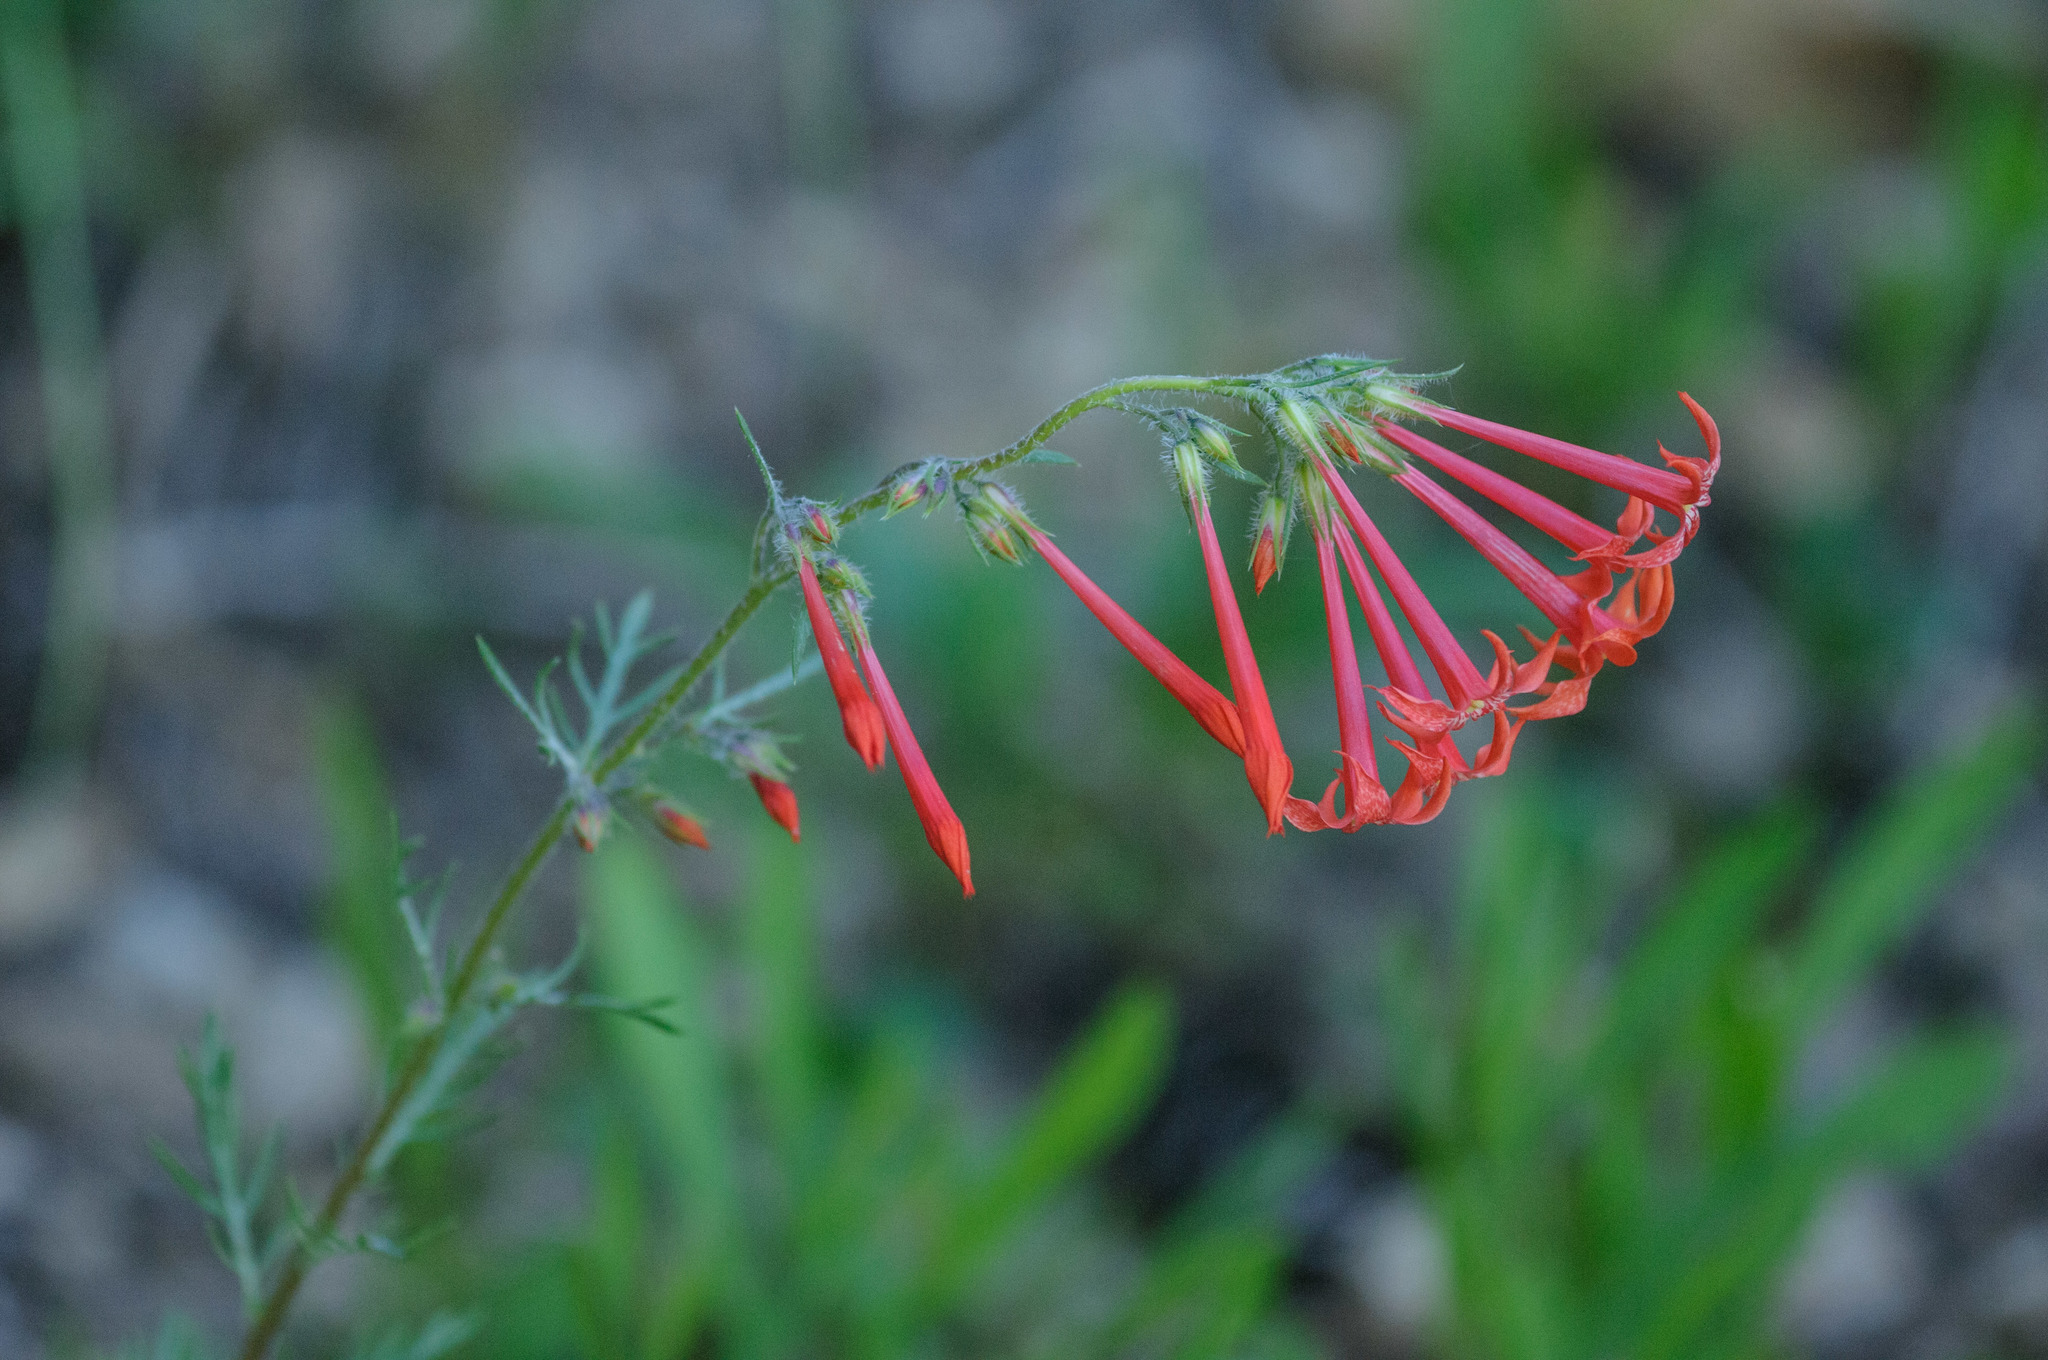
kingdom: Plantae
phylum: Tracheophyta
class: Magnoliopsida
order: Ericales
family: Polemoniaceae
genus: Ipomopsis
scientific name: Ipomopsis aggregata
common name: Scarlet gilia
